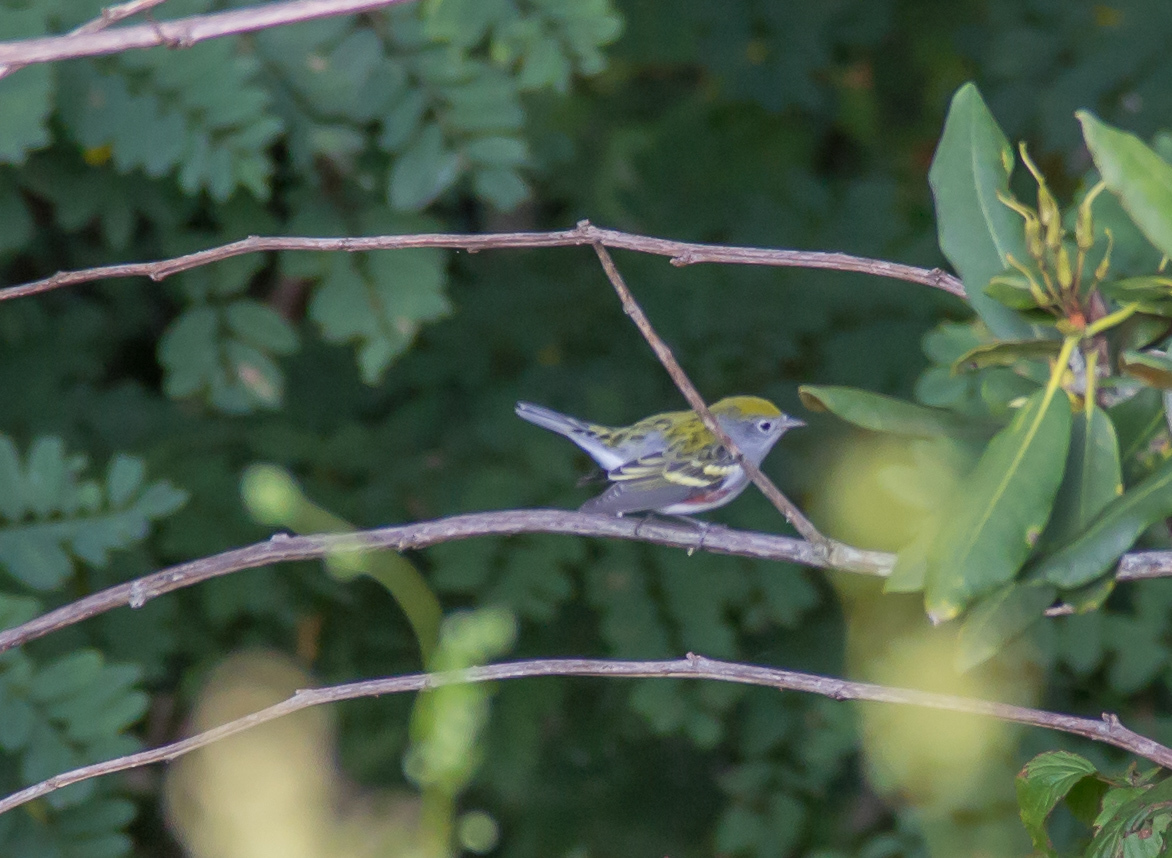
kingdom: Animalia
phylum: Chordata
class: Aves
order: Passeriformes
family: Parulidae
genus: Setophaga
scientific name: Setophaga pensylvanica
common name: Chestnut-sided warbler
